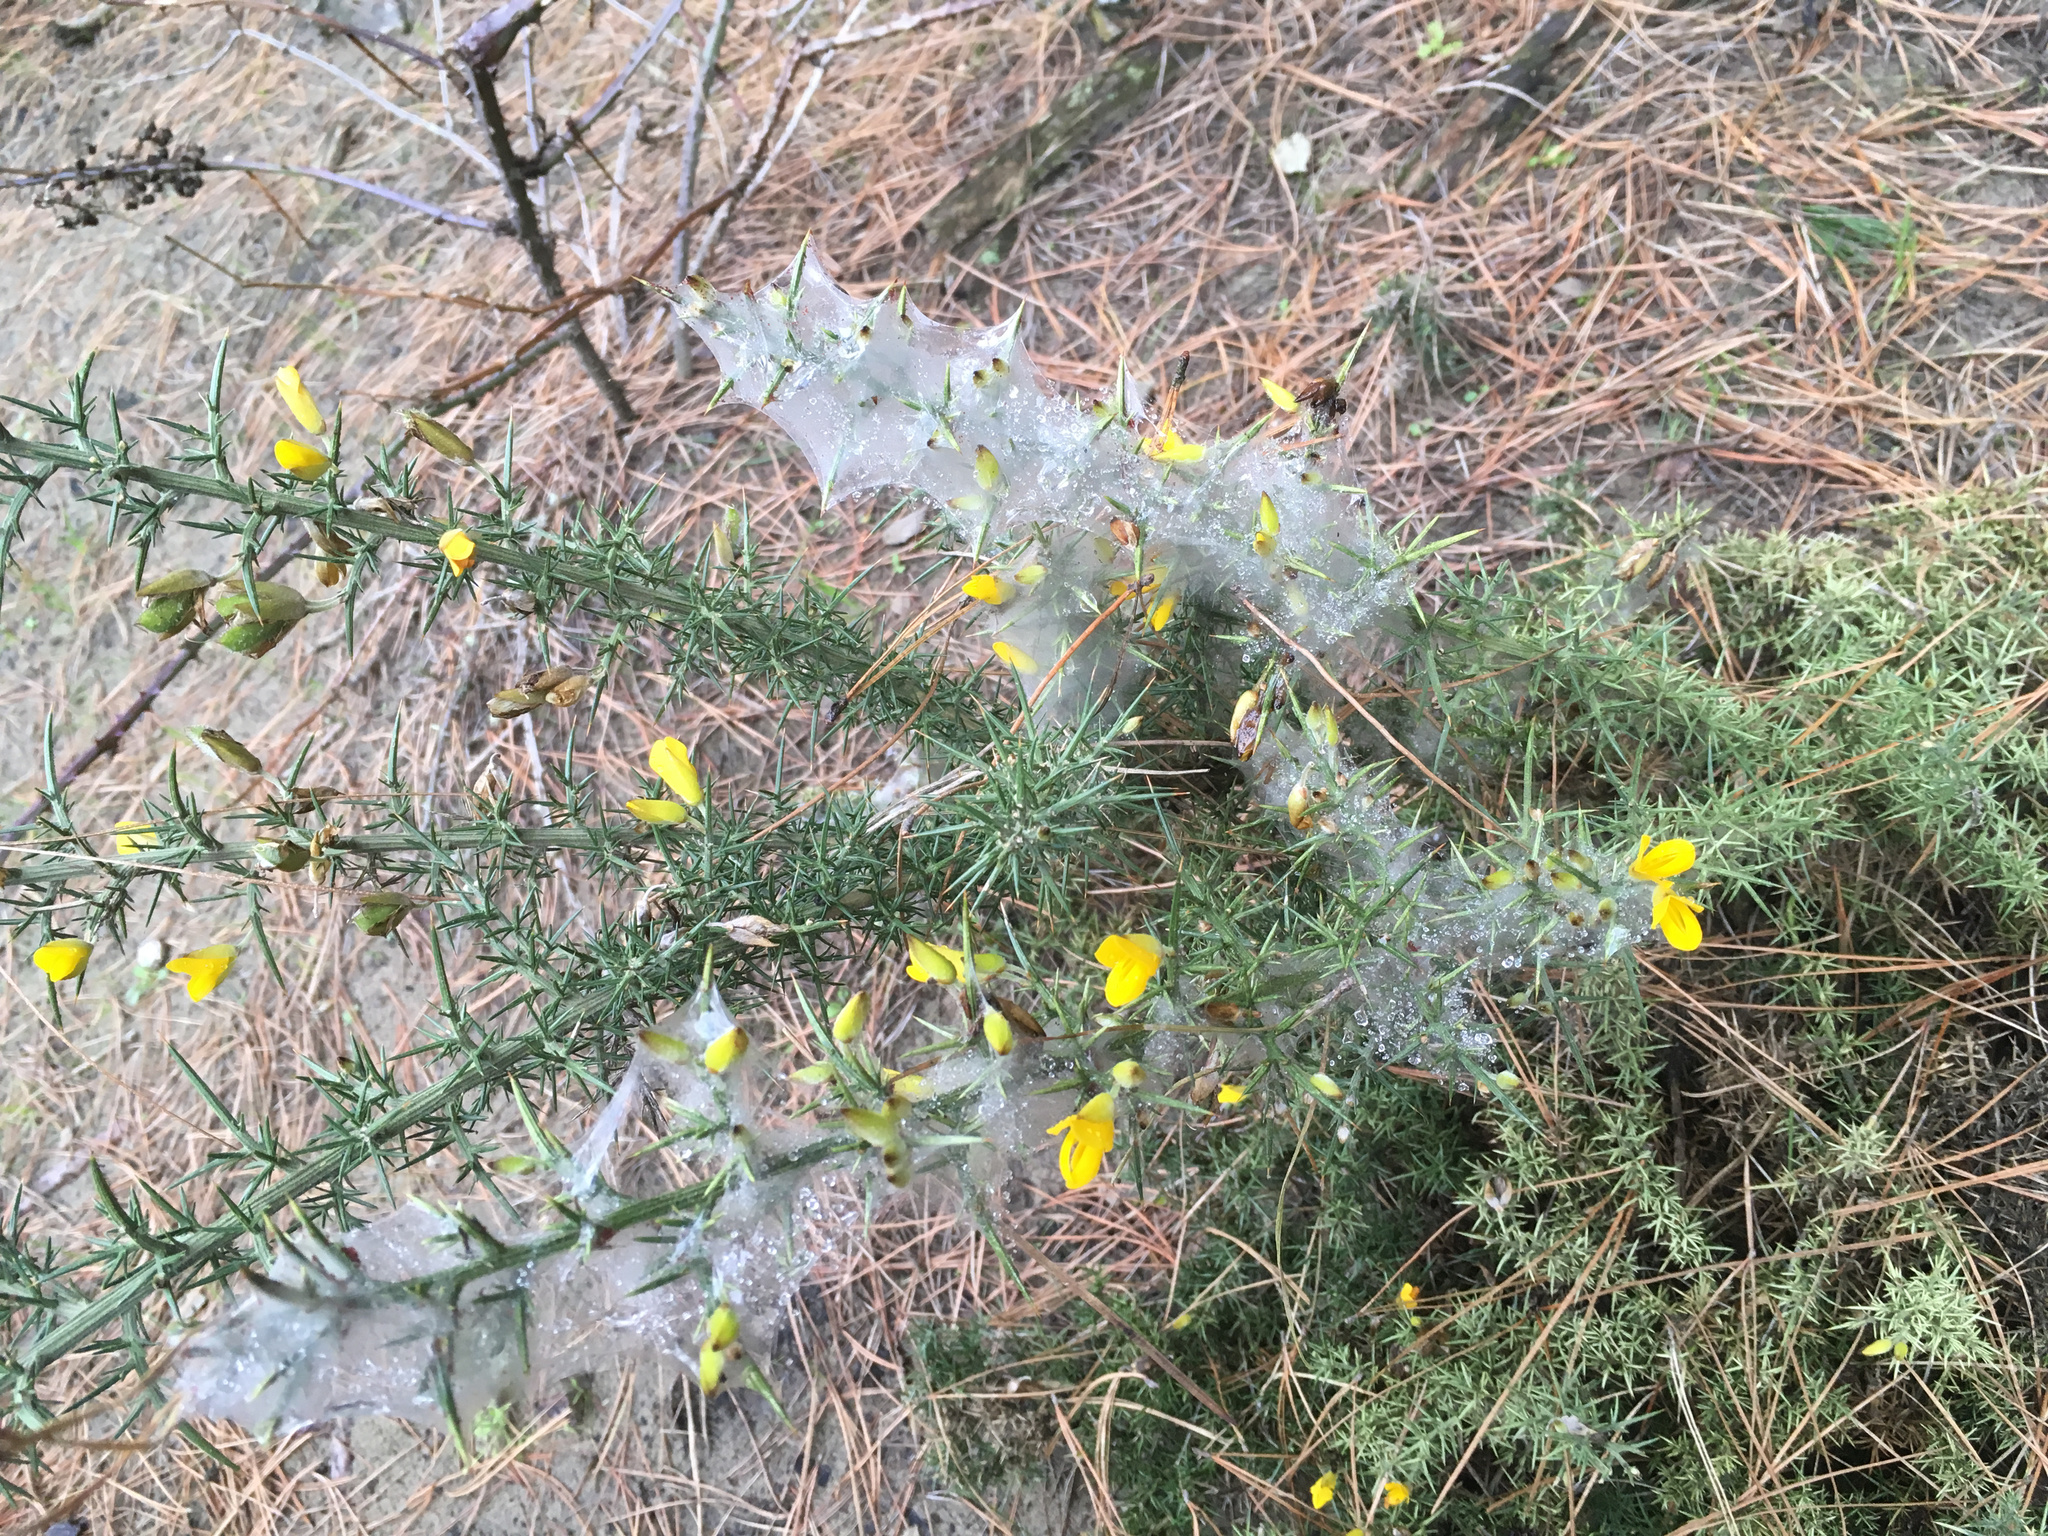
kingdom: Animalia
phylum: Arthropoda
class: Arachnida
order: Trombidiformes
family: Tetranychidae
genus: Tetranychus
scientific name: Tetranychus lintearius
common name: Gorse spider mite
